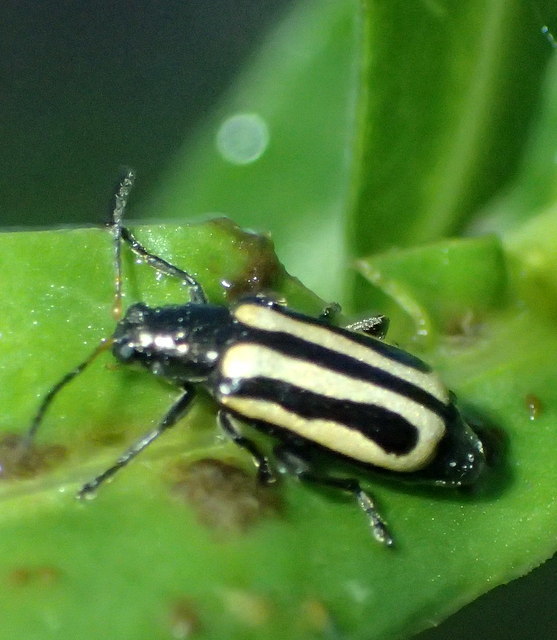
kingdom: Animalia
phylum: Arthropoda
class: Insecta
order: Coleoptera
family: Chrysomelidae
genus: Agasicles
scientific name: Agasicles hygrophila
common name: Alligatorweed flea beetle
